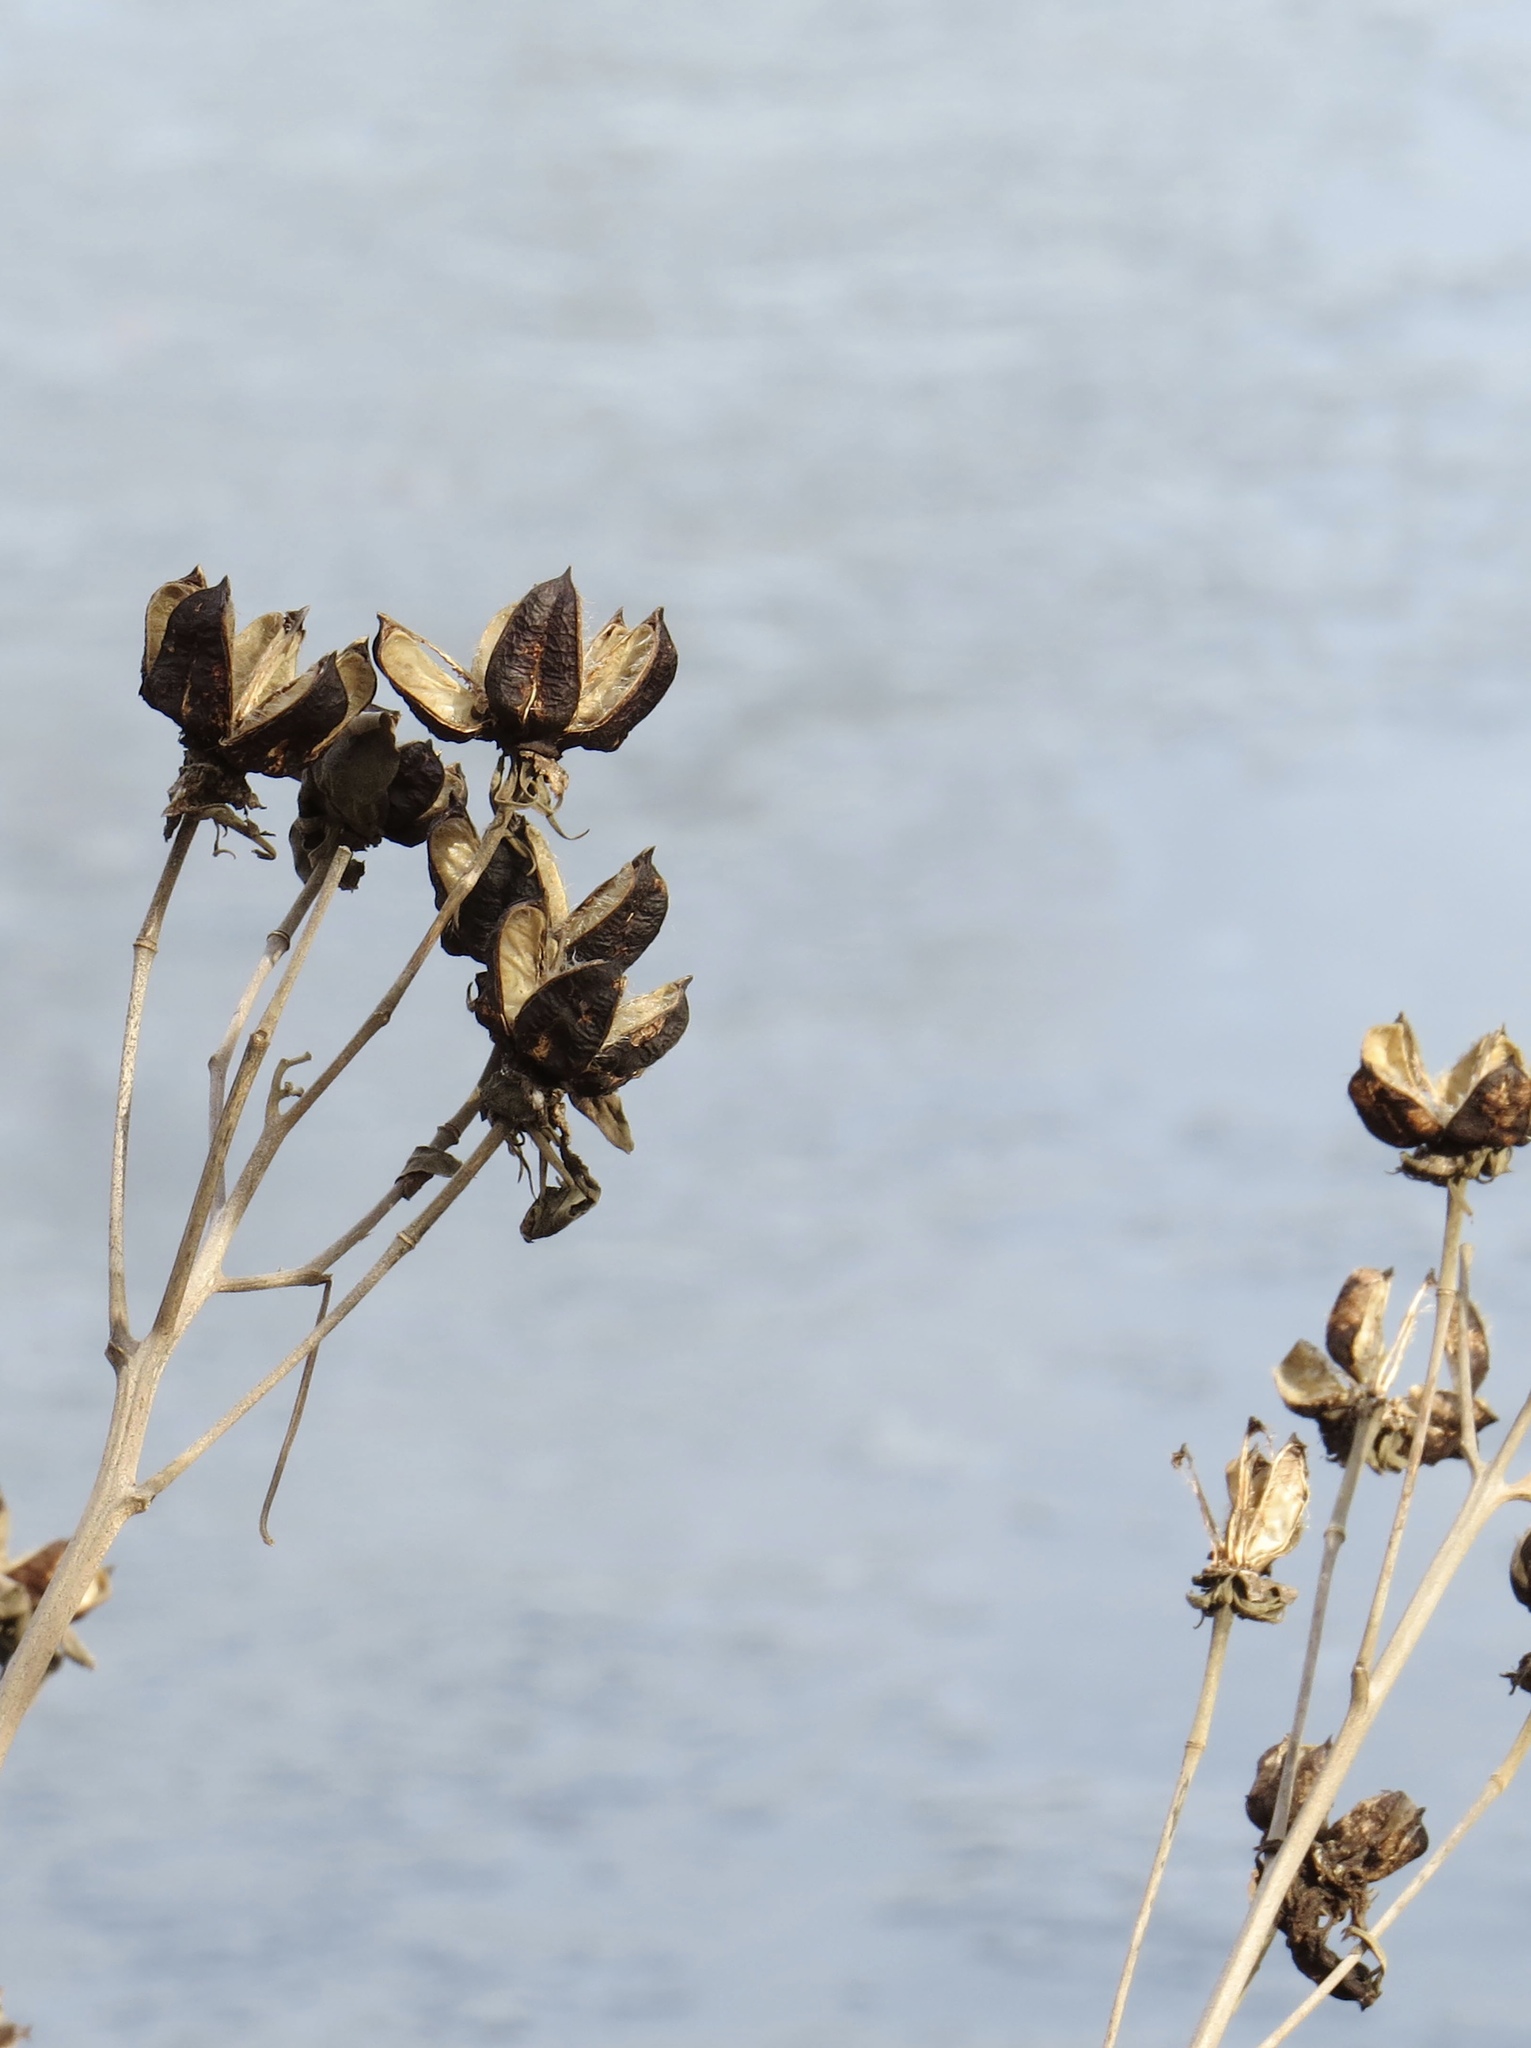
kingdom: Plantae
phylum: Tracheophyta
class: Magnoliopsida
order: Malvales
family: Malvaceae
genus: Hibiscus
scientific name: Hibiscus moscheutos
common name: Common rose-mallow
